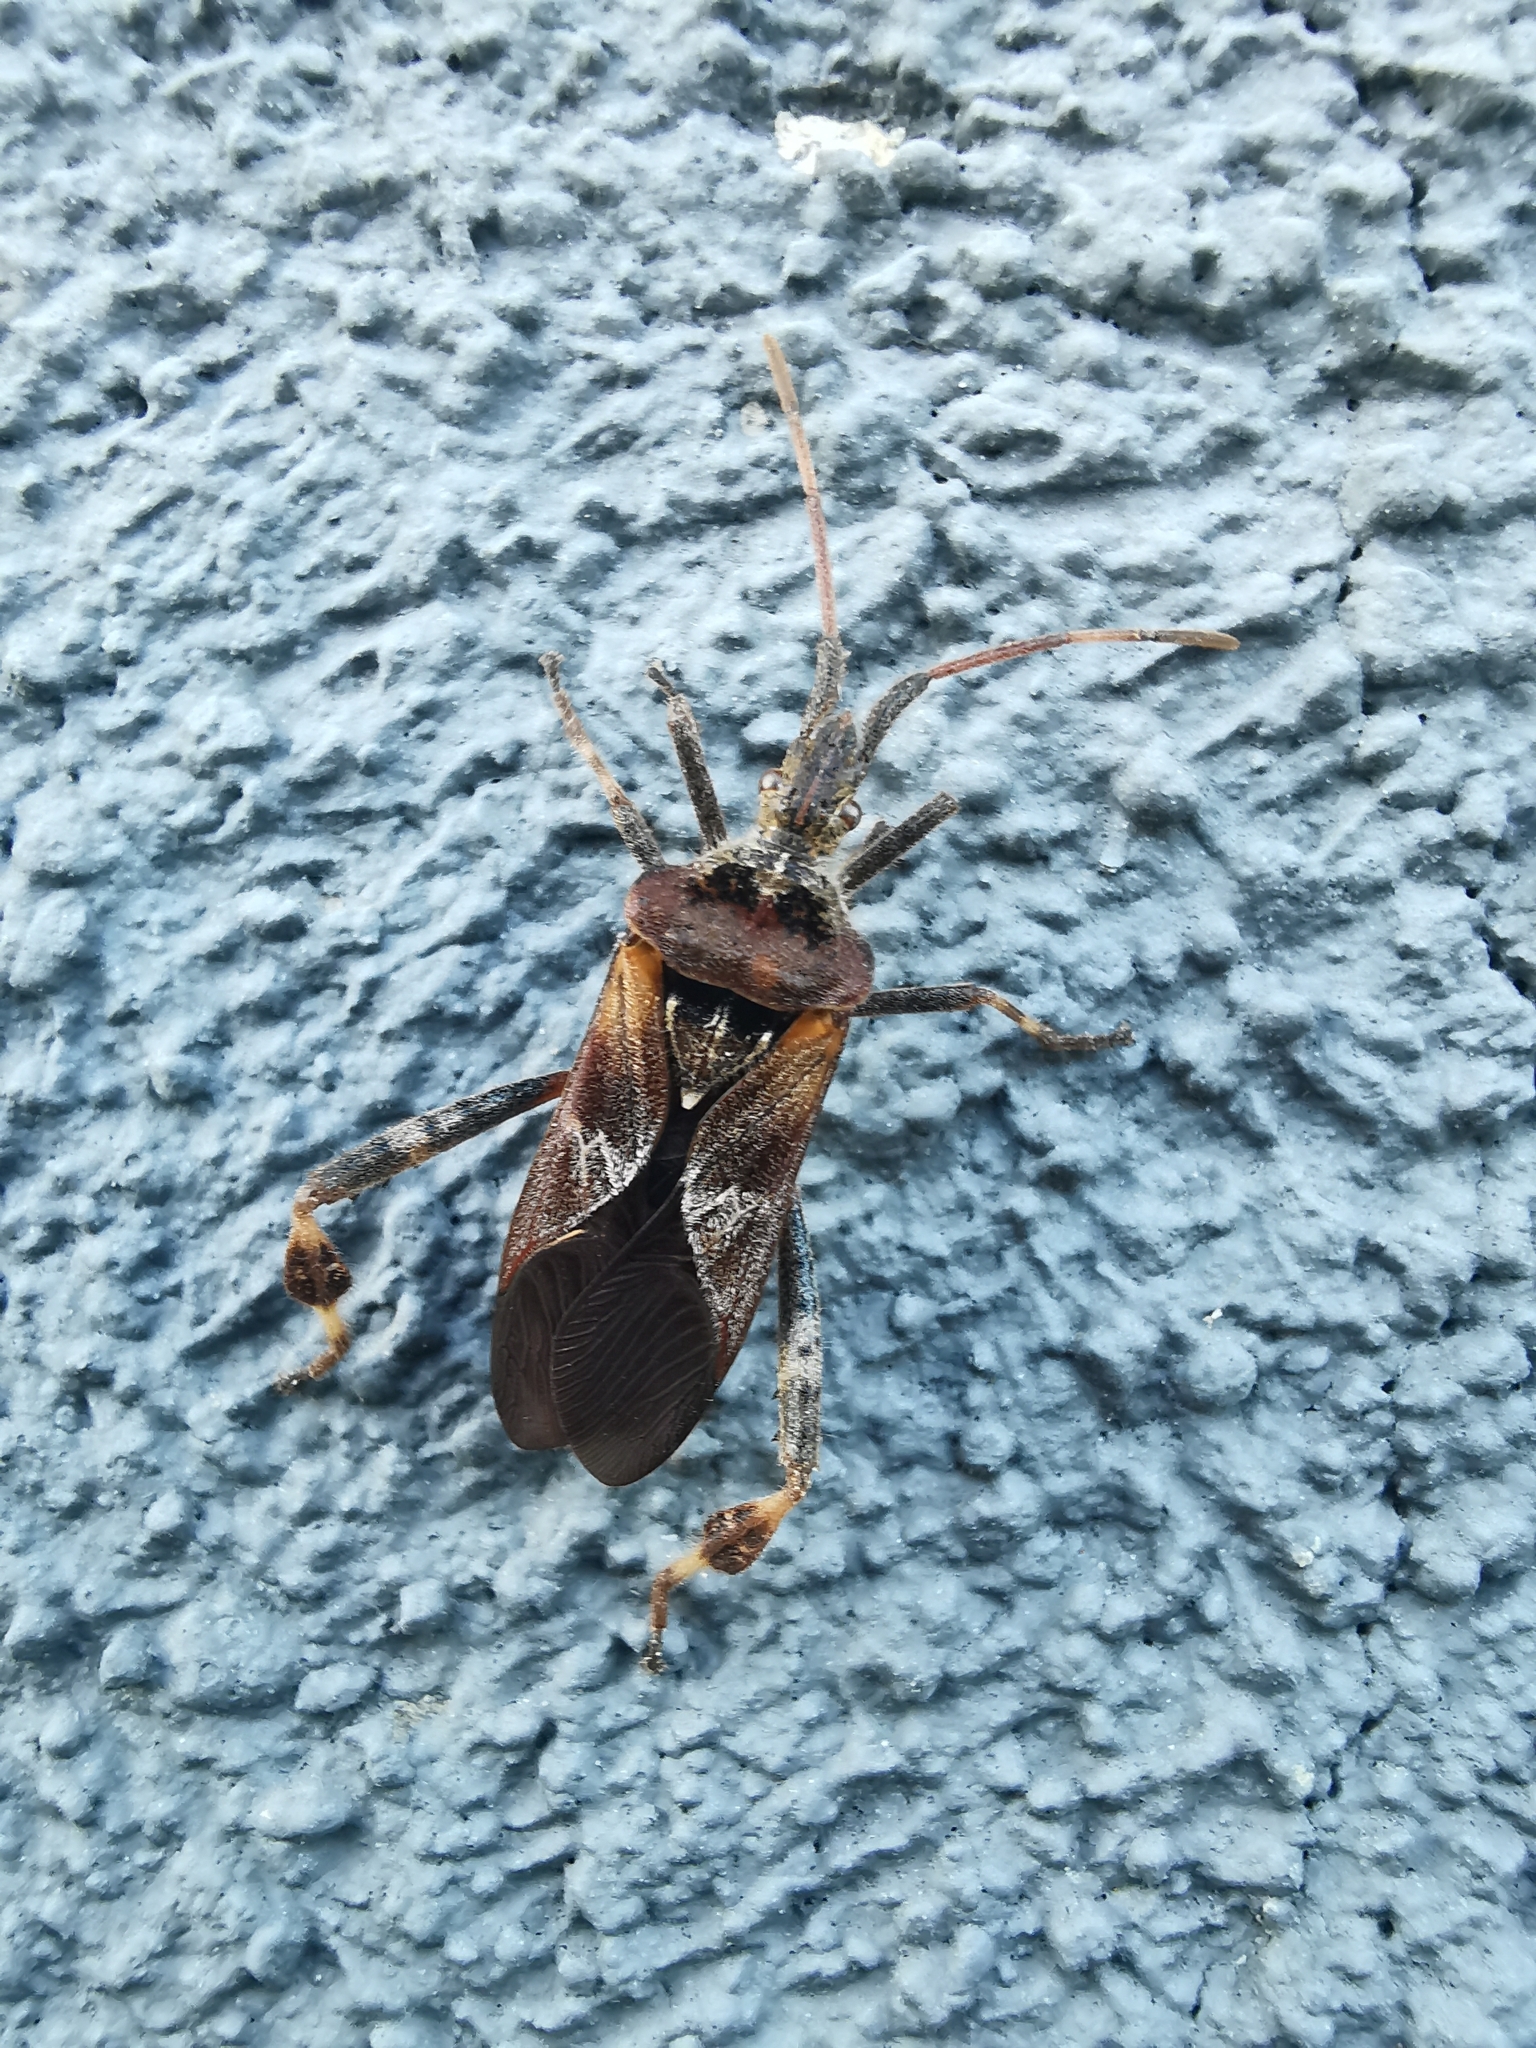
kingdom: Animalia
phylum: Arthropoda
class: Insecta
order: Hemiptera
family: Coreidae
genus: Leptoglossus
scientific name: Leptoglossus occidentalis
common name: Western conifer-seed bug
